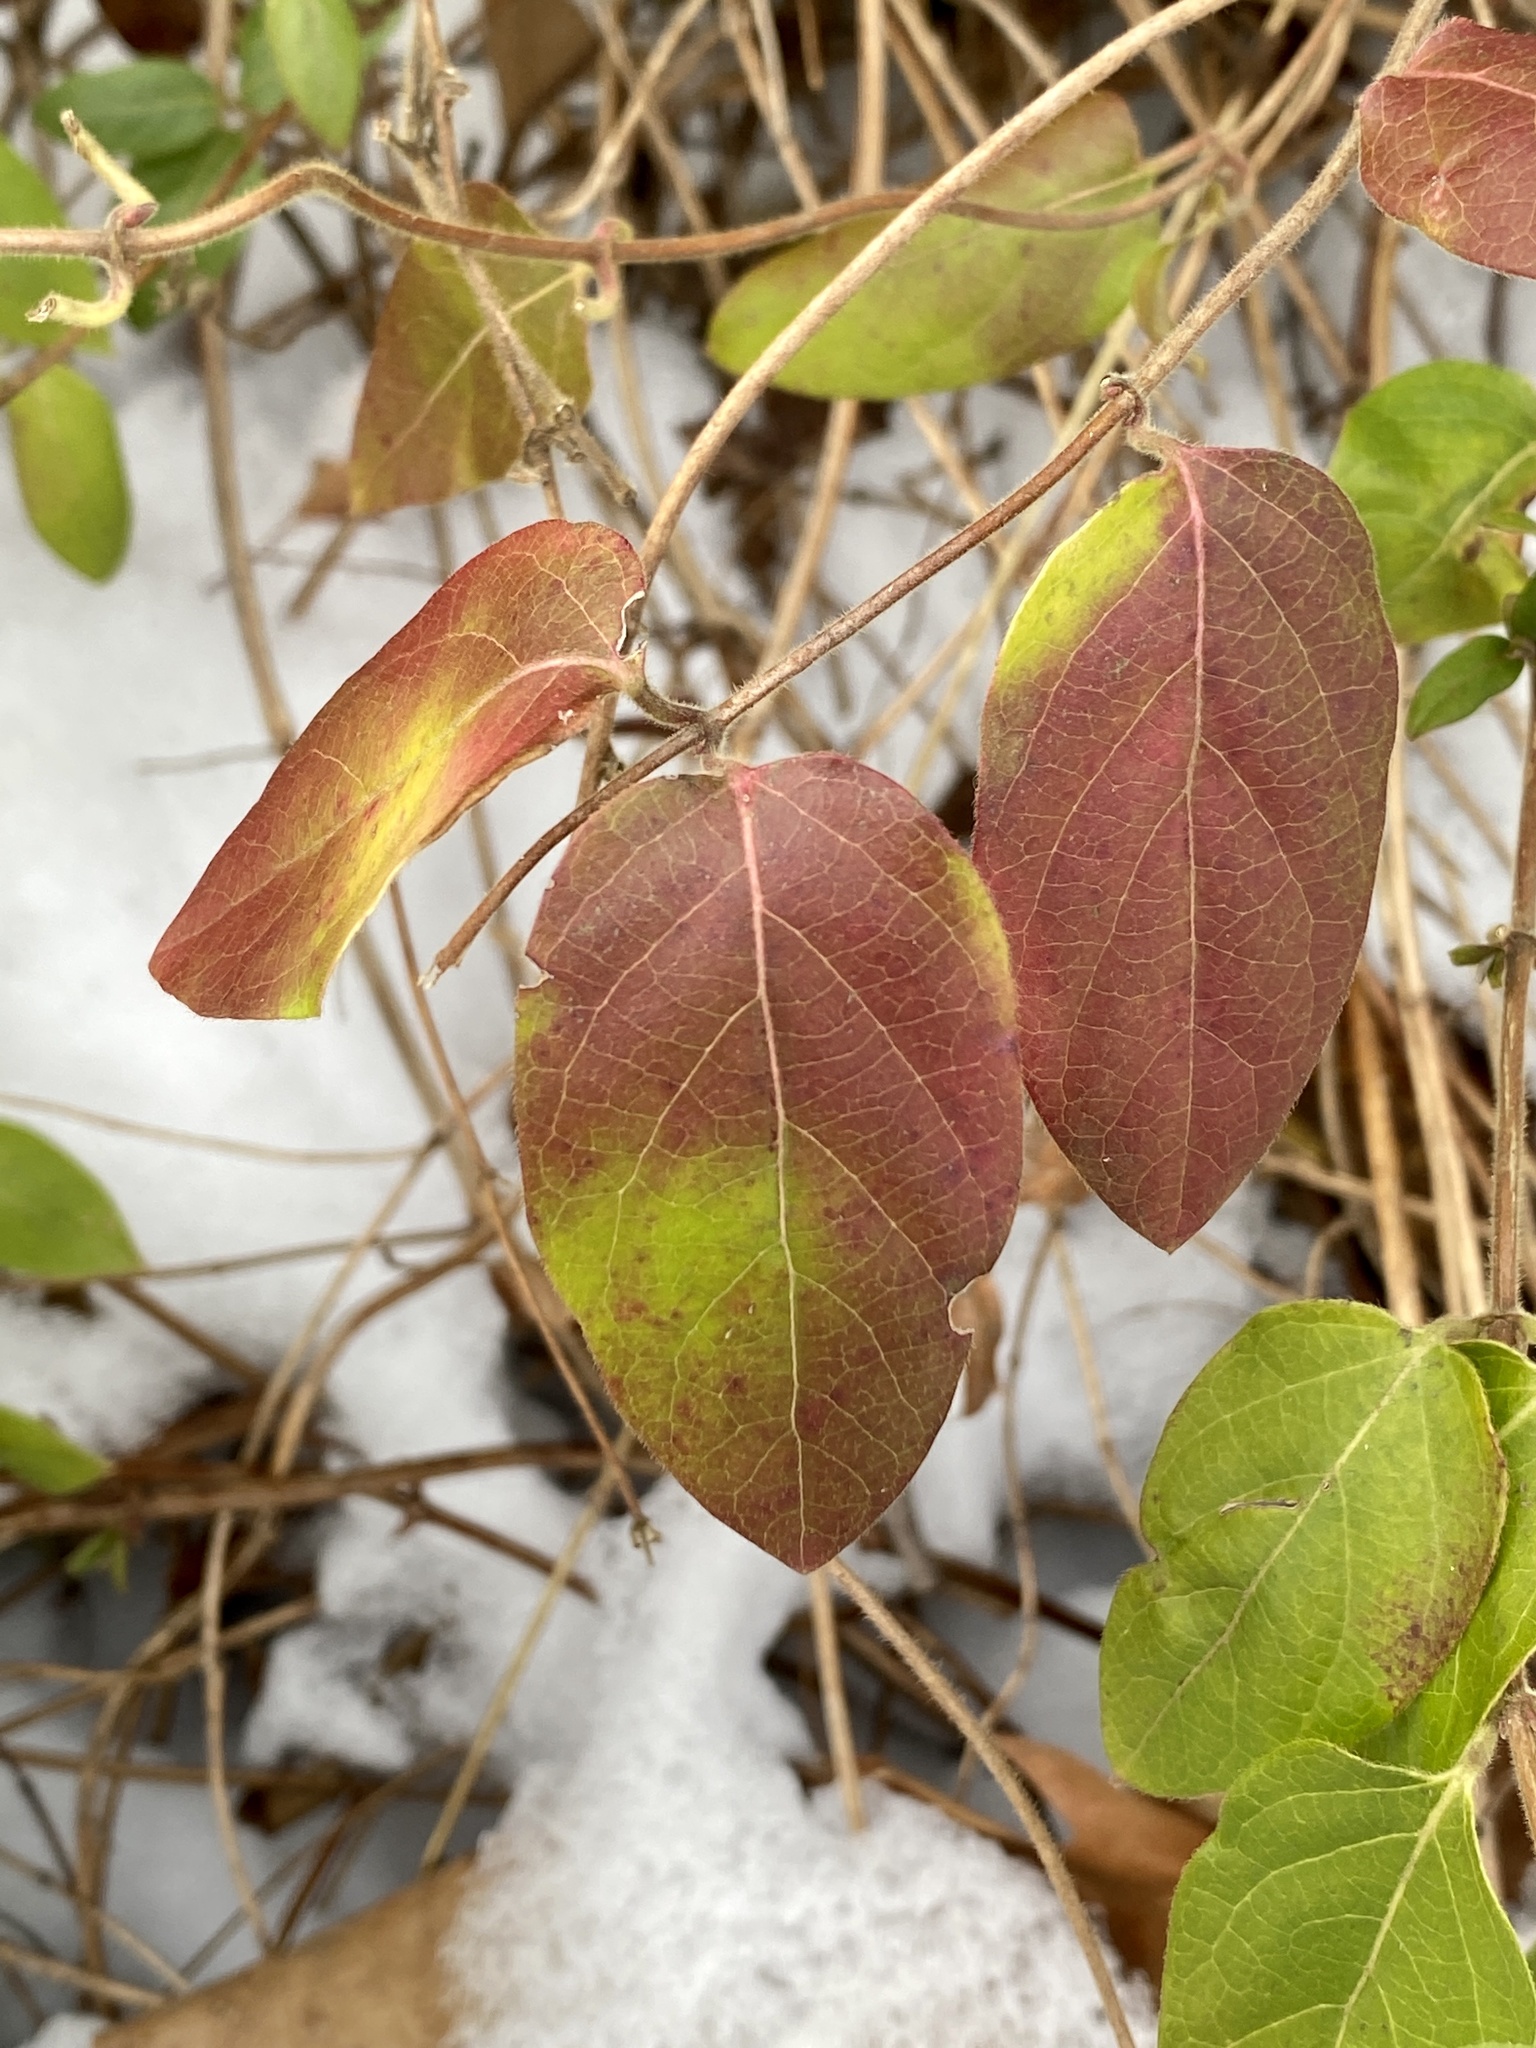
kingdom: Plantae
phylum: Tracheophyta
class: Magnoliopsida
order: Dipsacales
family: Caprifoliaceae
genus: Lonicera
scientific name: Lonicera japonica
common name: Japanese honeysuckle
